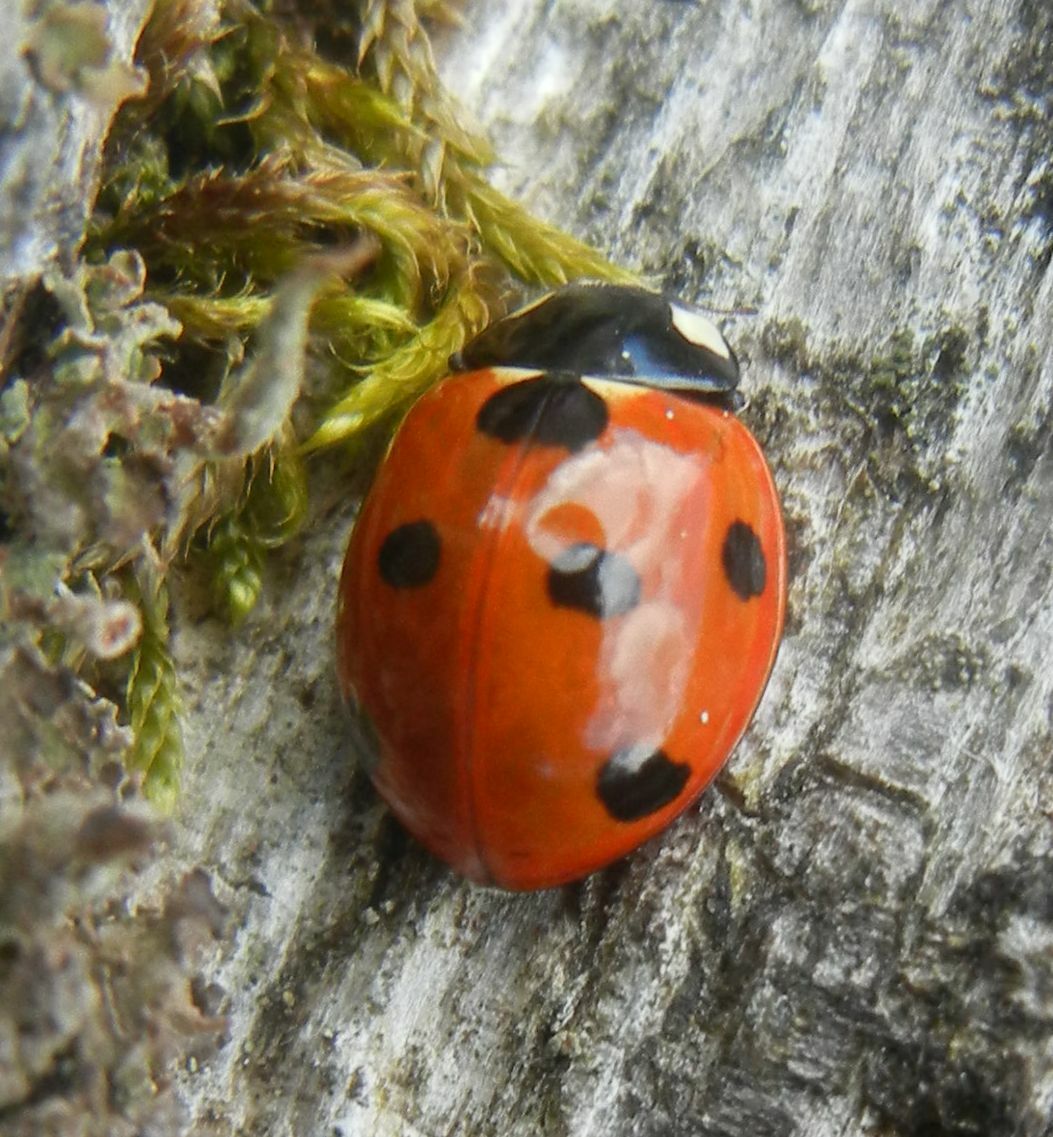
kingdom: Animalia
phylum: Arthropoda
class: Insecta
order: Coleoptera
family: Coccinellidae
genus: Coccinella
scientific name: Coccinella septempunctata
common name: Sevenspotted lady beetle
